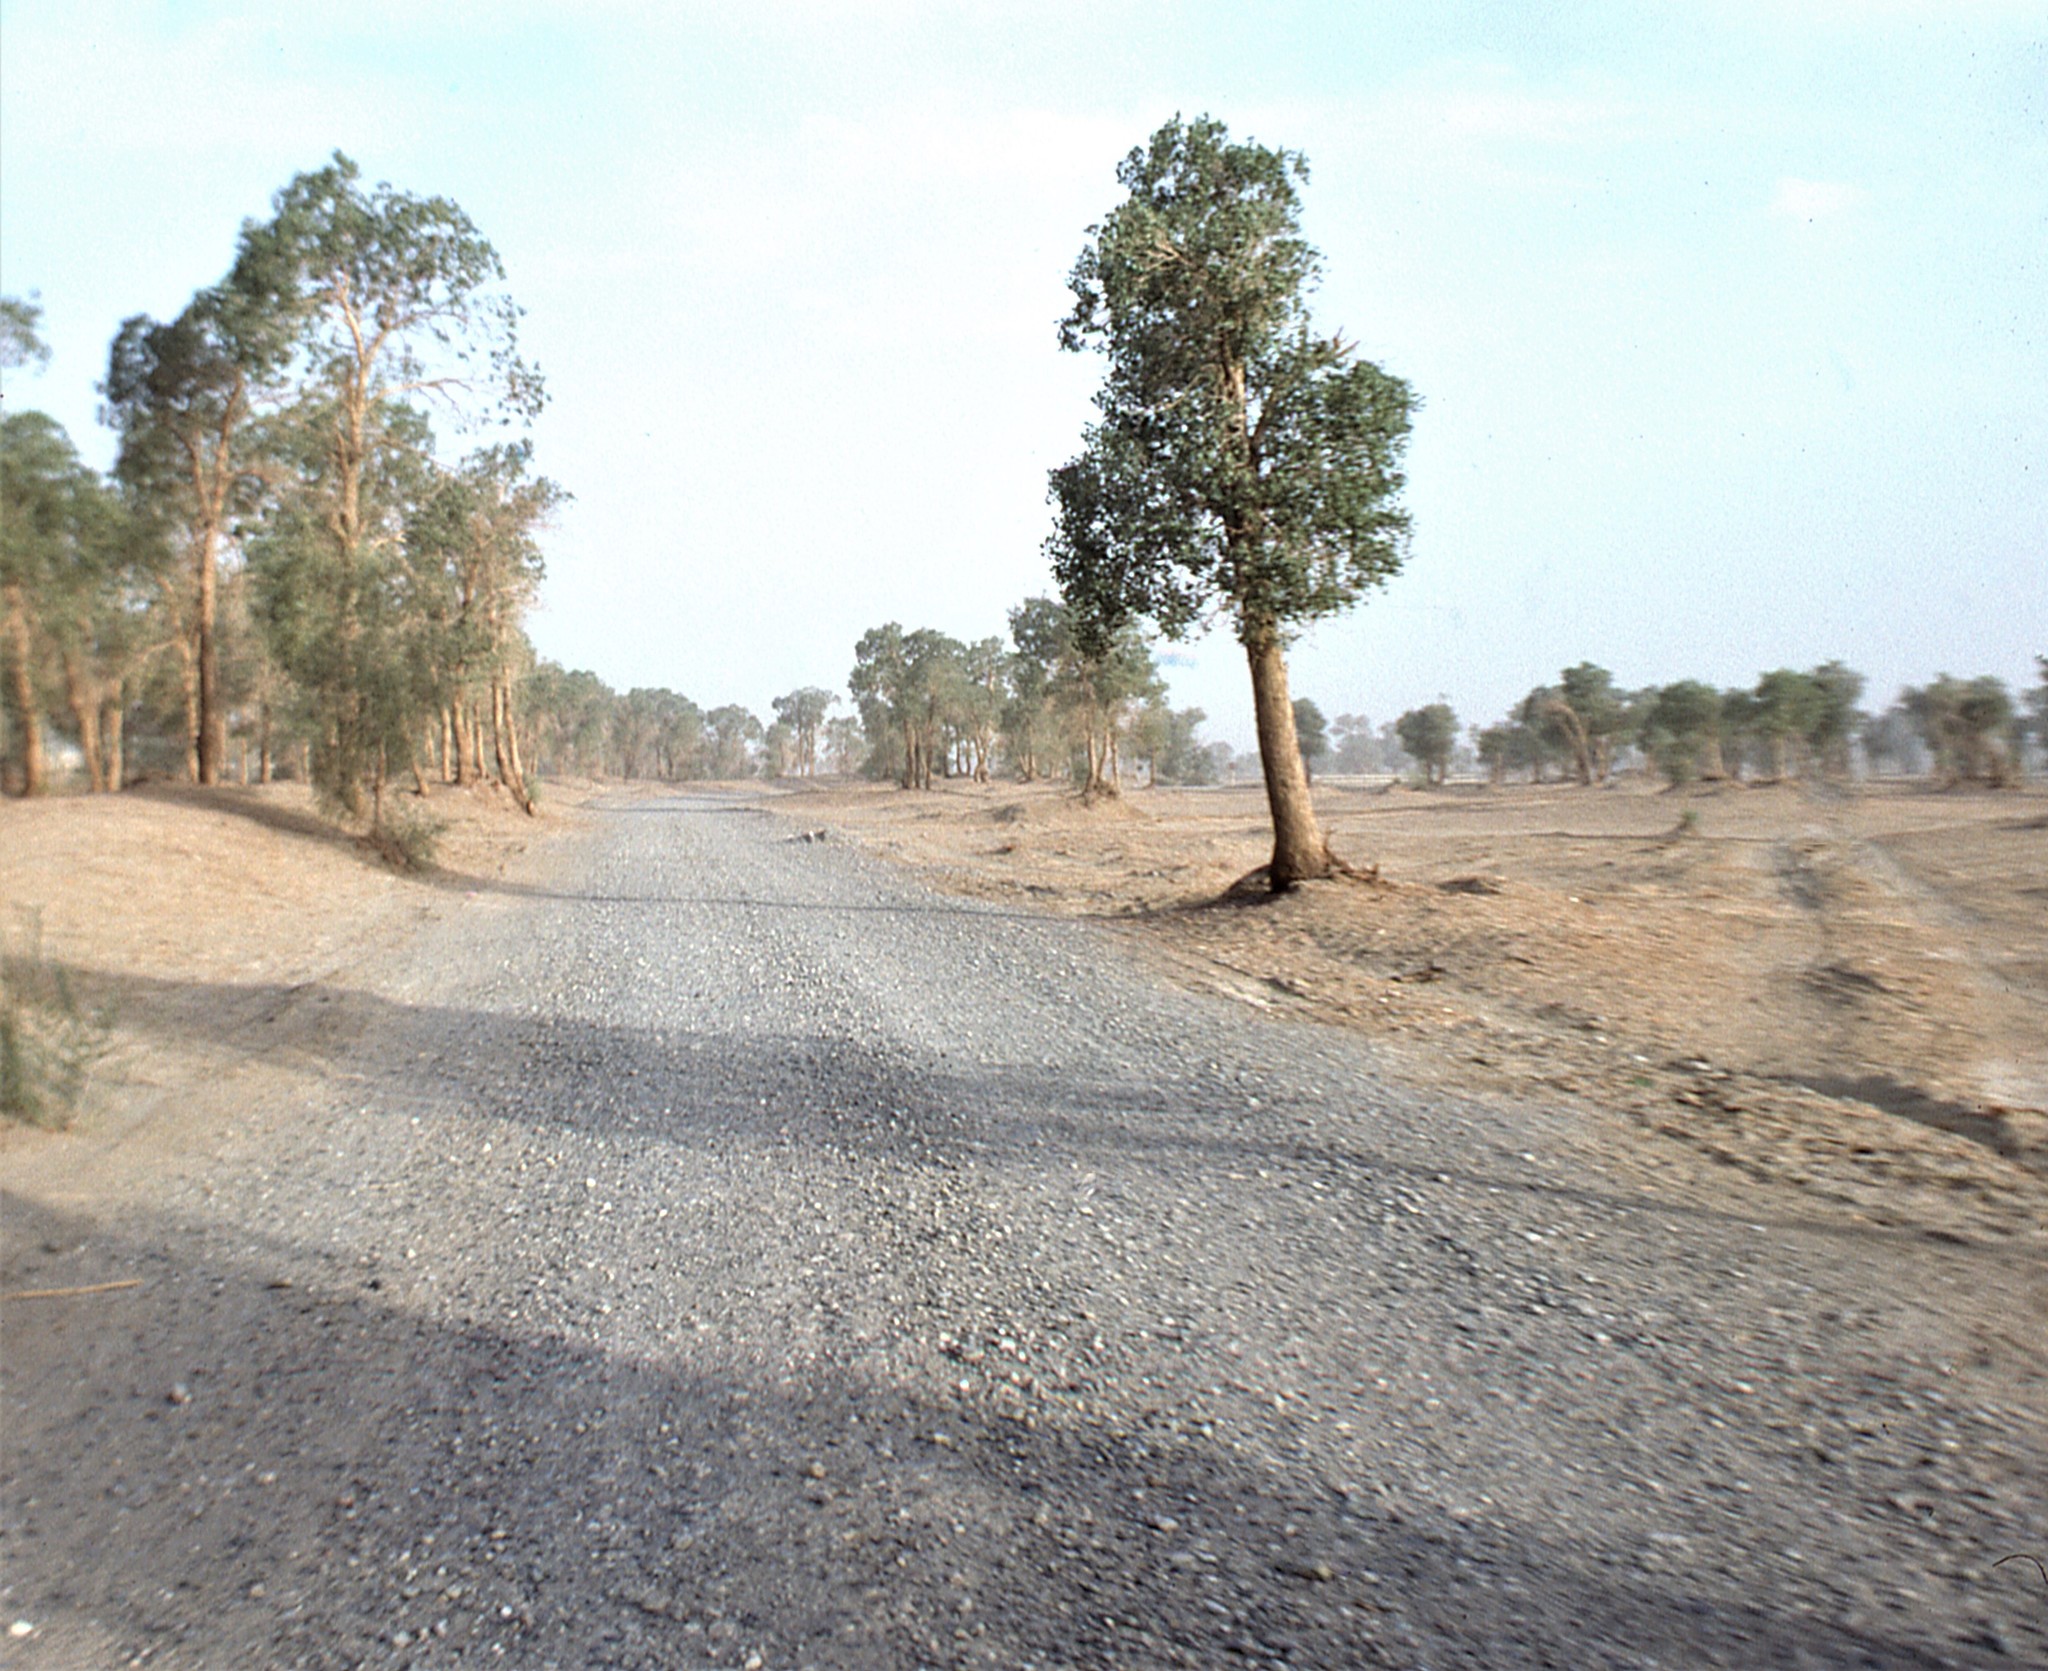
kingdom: Plantae
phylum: Tracheophyta
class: Magnoliopsida
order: Malpighiales
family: Salicaceae
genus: Populus
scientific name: Populus euphratica
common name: Euphrates poplar
